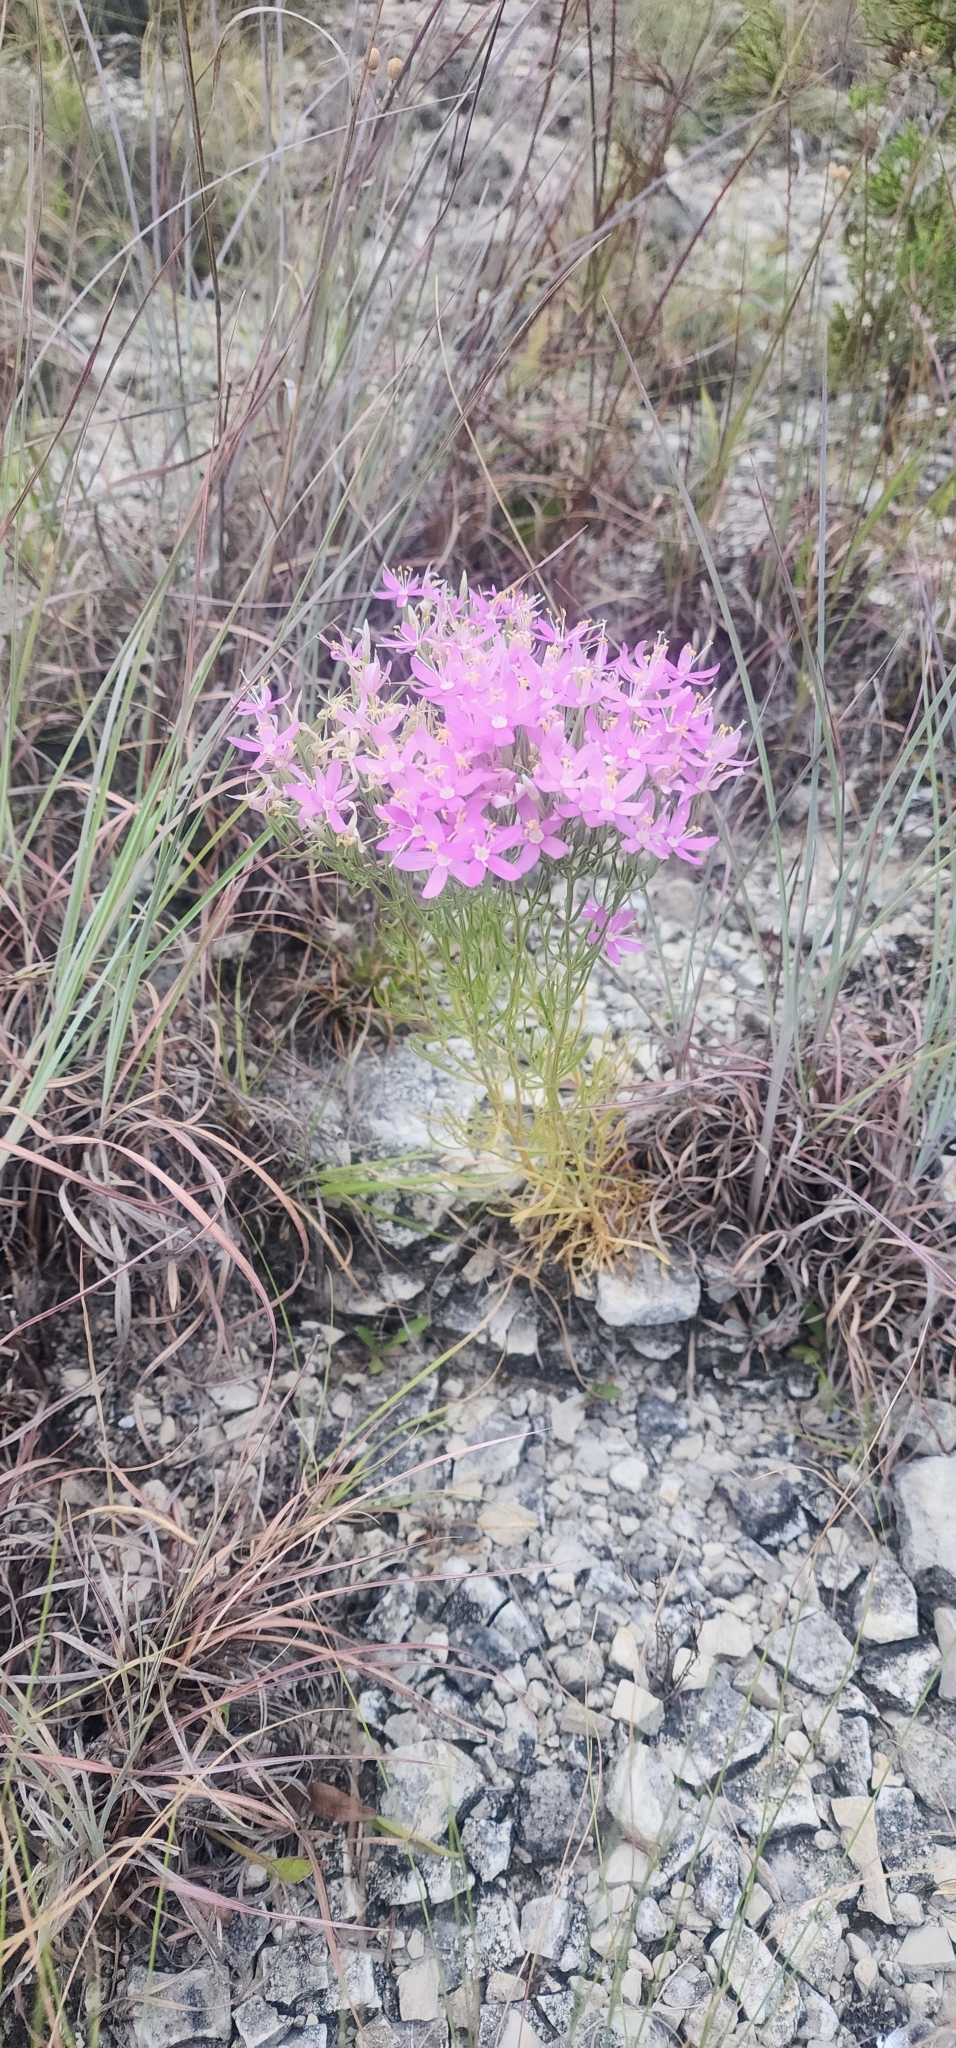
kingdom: Plantae
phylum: Tracheophyta
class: Magnoliopsida
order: Gentianales
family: Gentianaceae
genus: Zeltnera
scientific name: Zeltnera beyrichii
